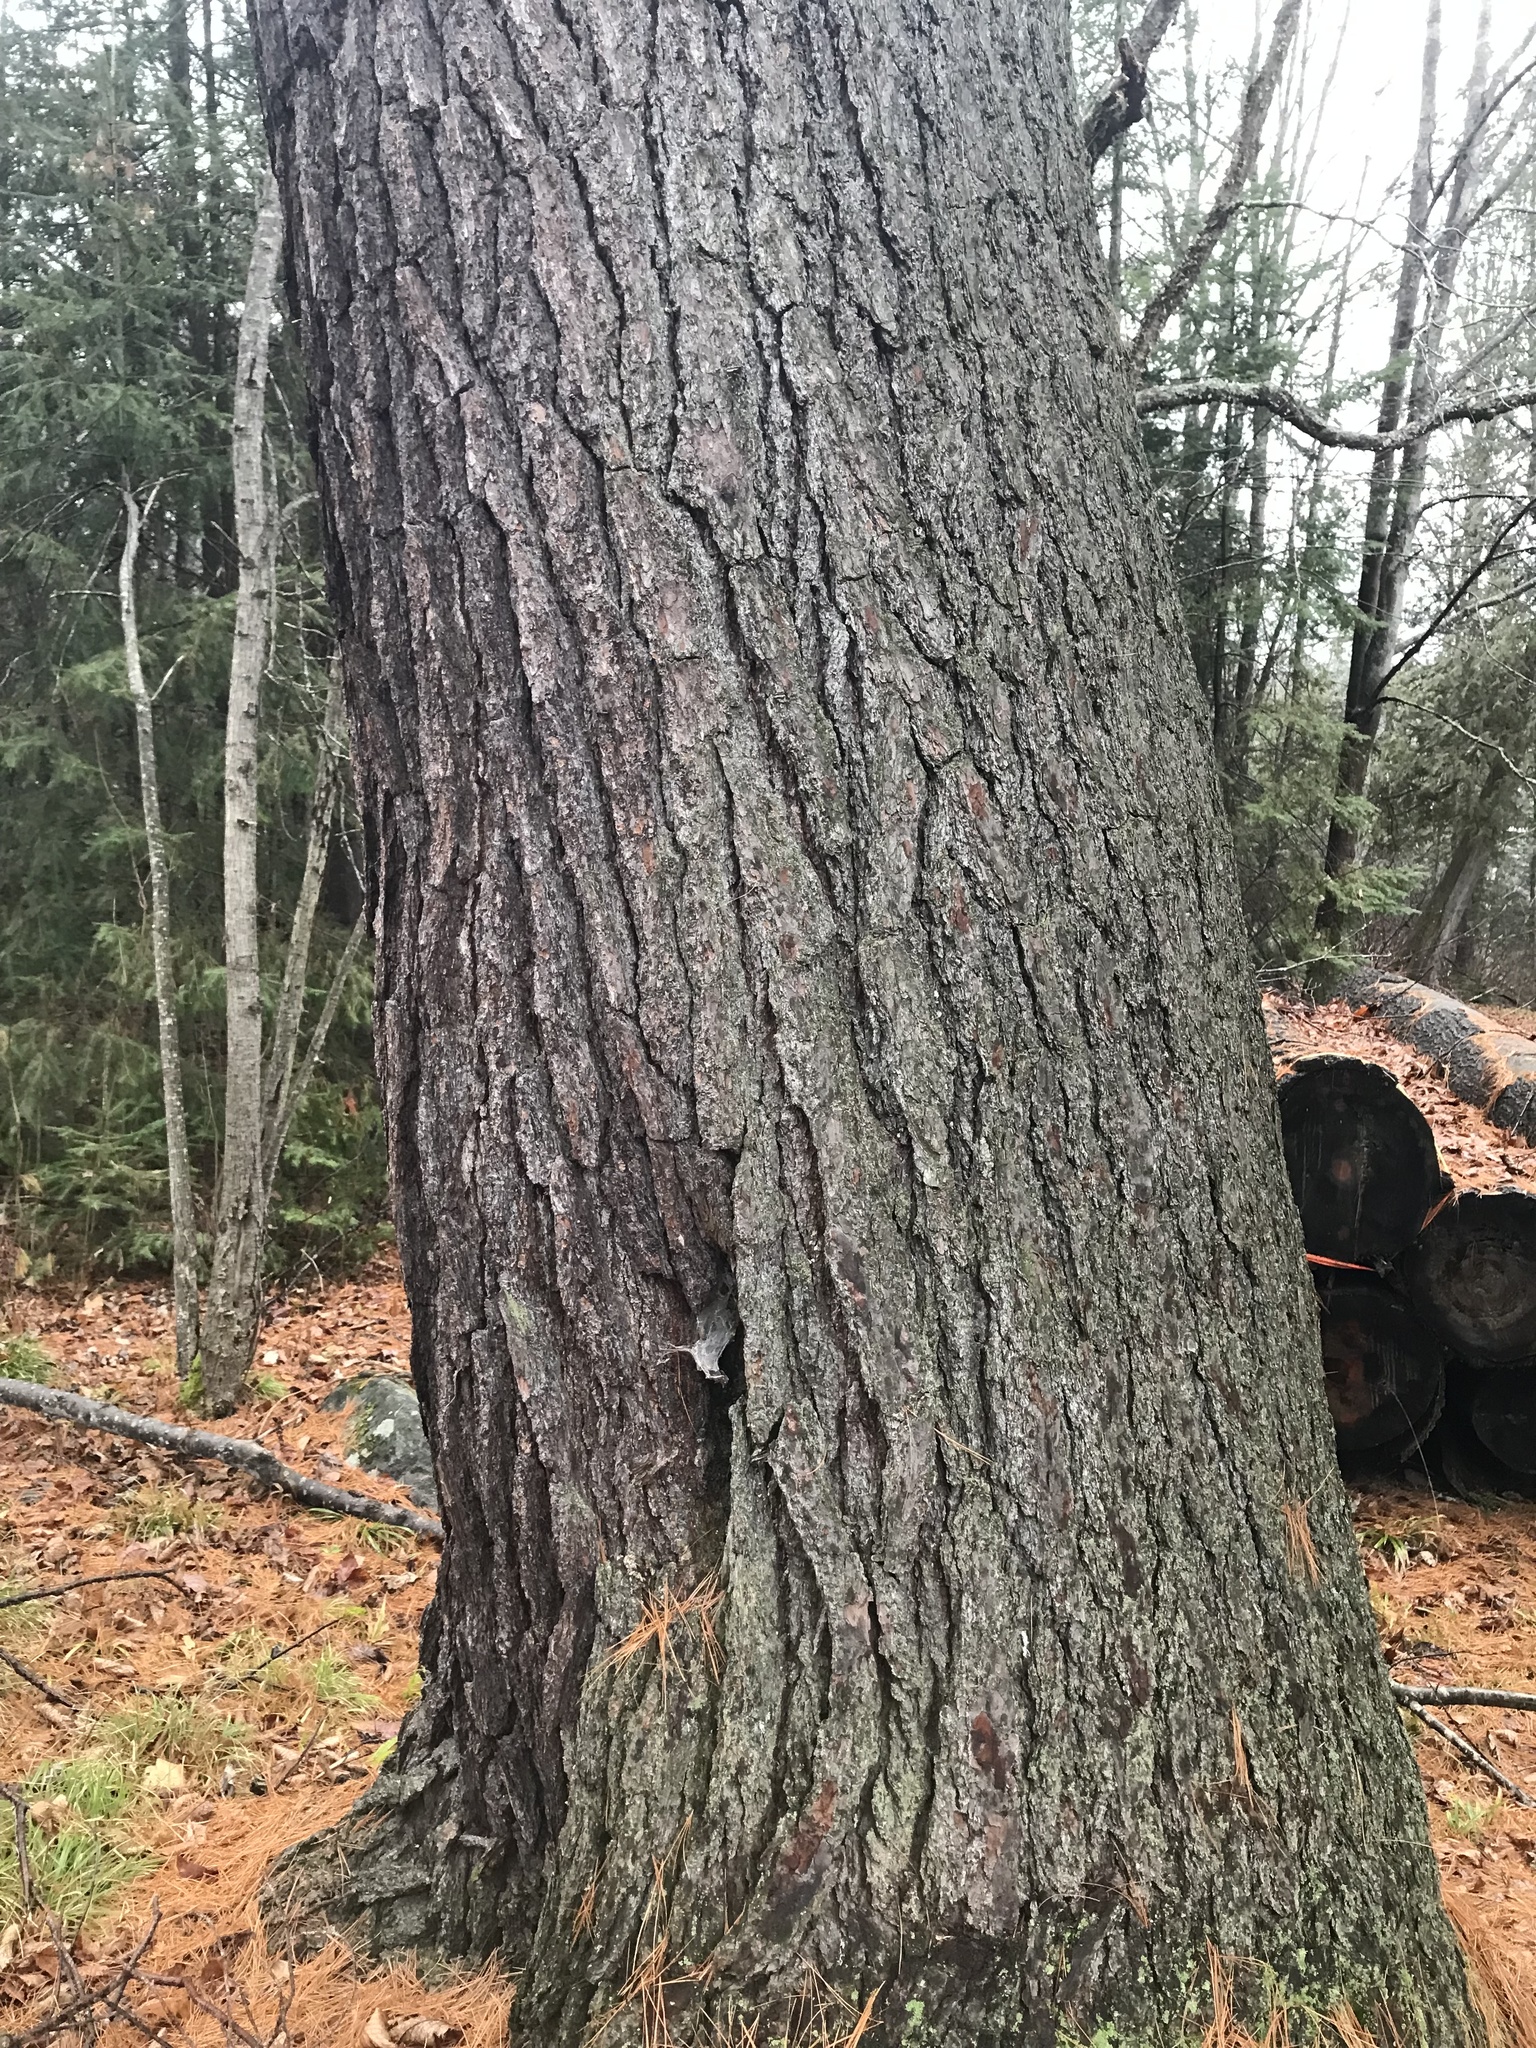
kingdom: Plantae
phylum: Tracheophyta
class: Pinopsida
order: Pinales
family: Pinaceae
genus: Pinus
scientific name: Pinus strobus
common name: Weymouth pine
